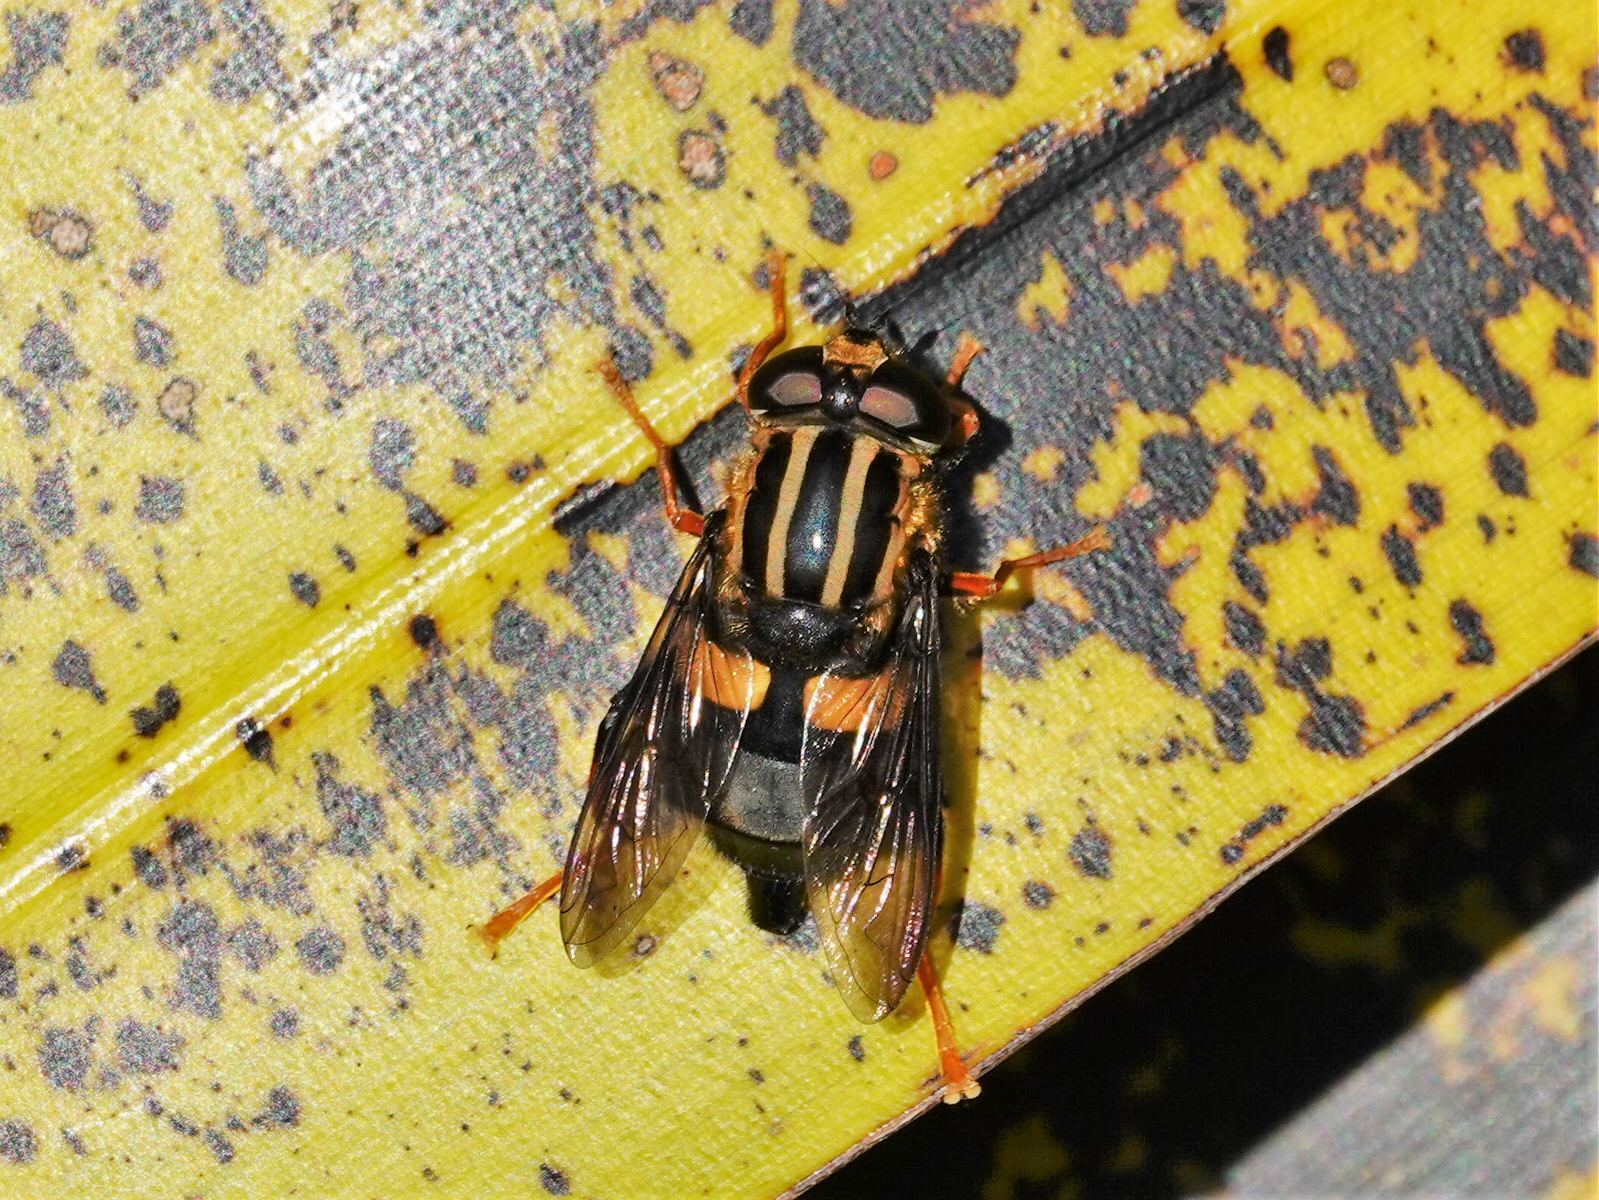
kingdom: Animalia
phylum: Arthropoda
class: Insecta
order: Diptera
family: Syrphidae
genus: Helophilus
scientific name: Helophilus seelandicus
